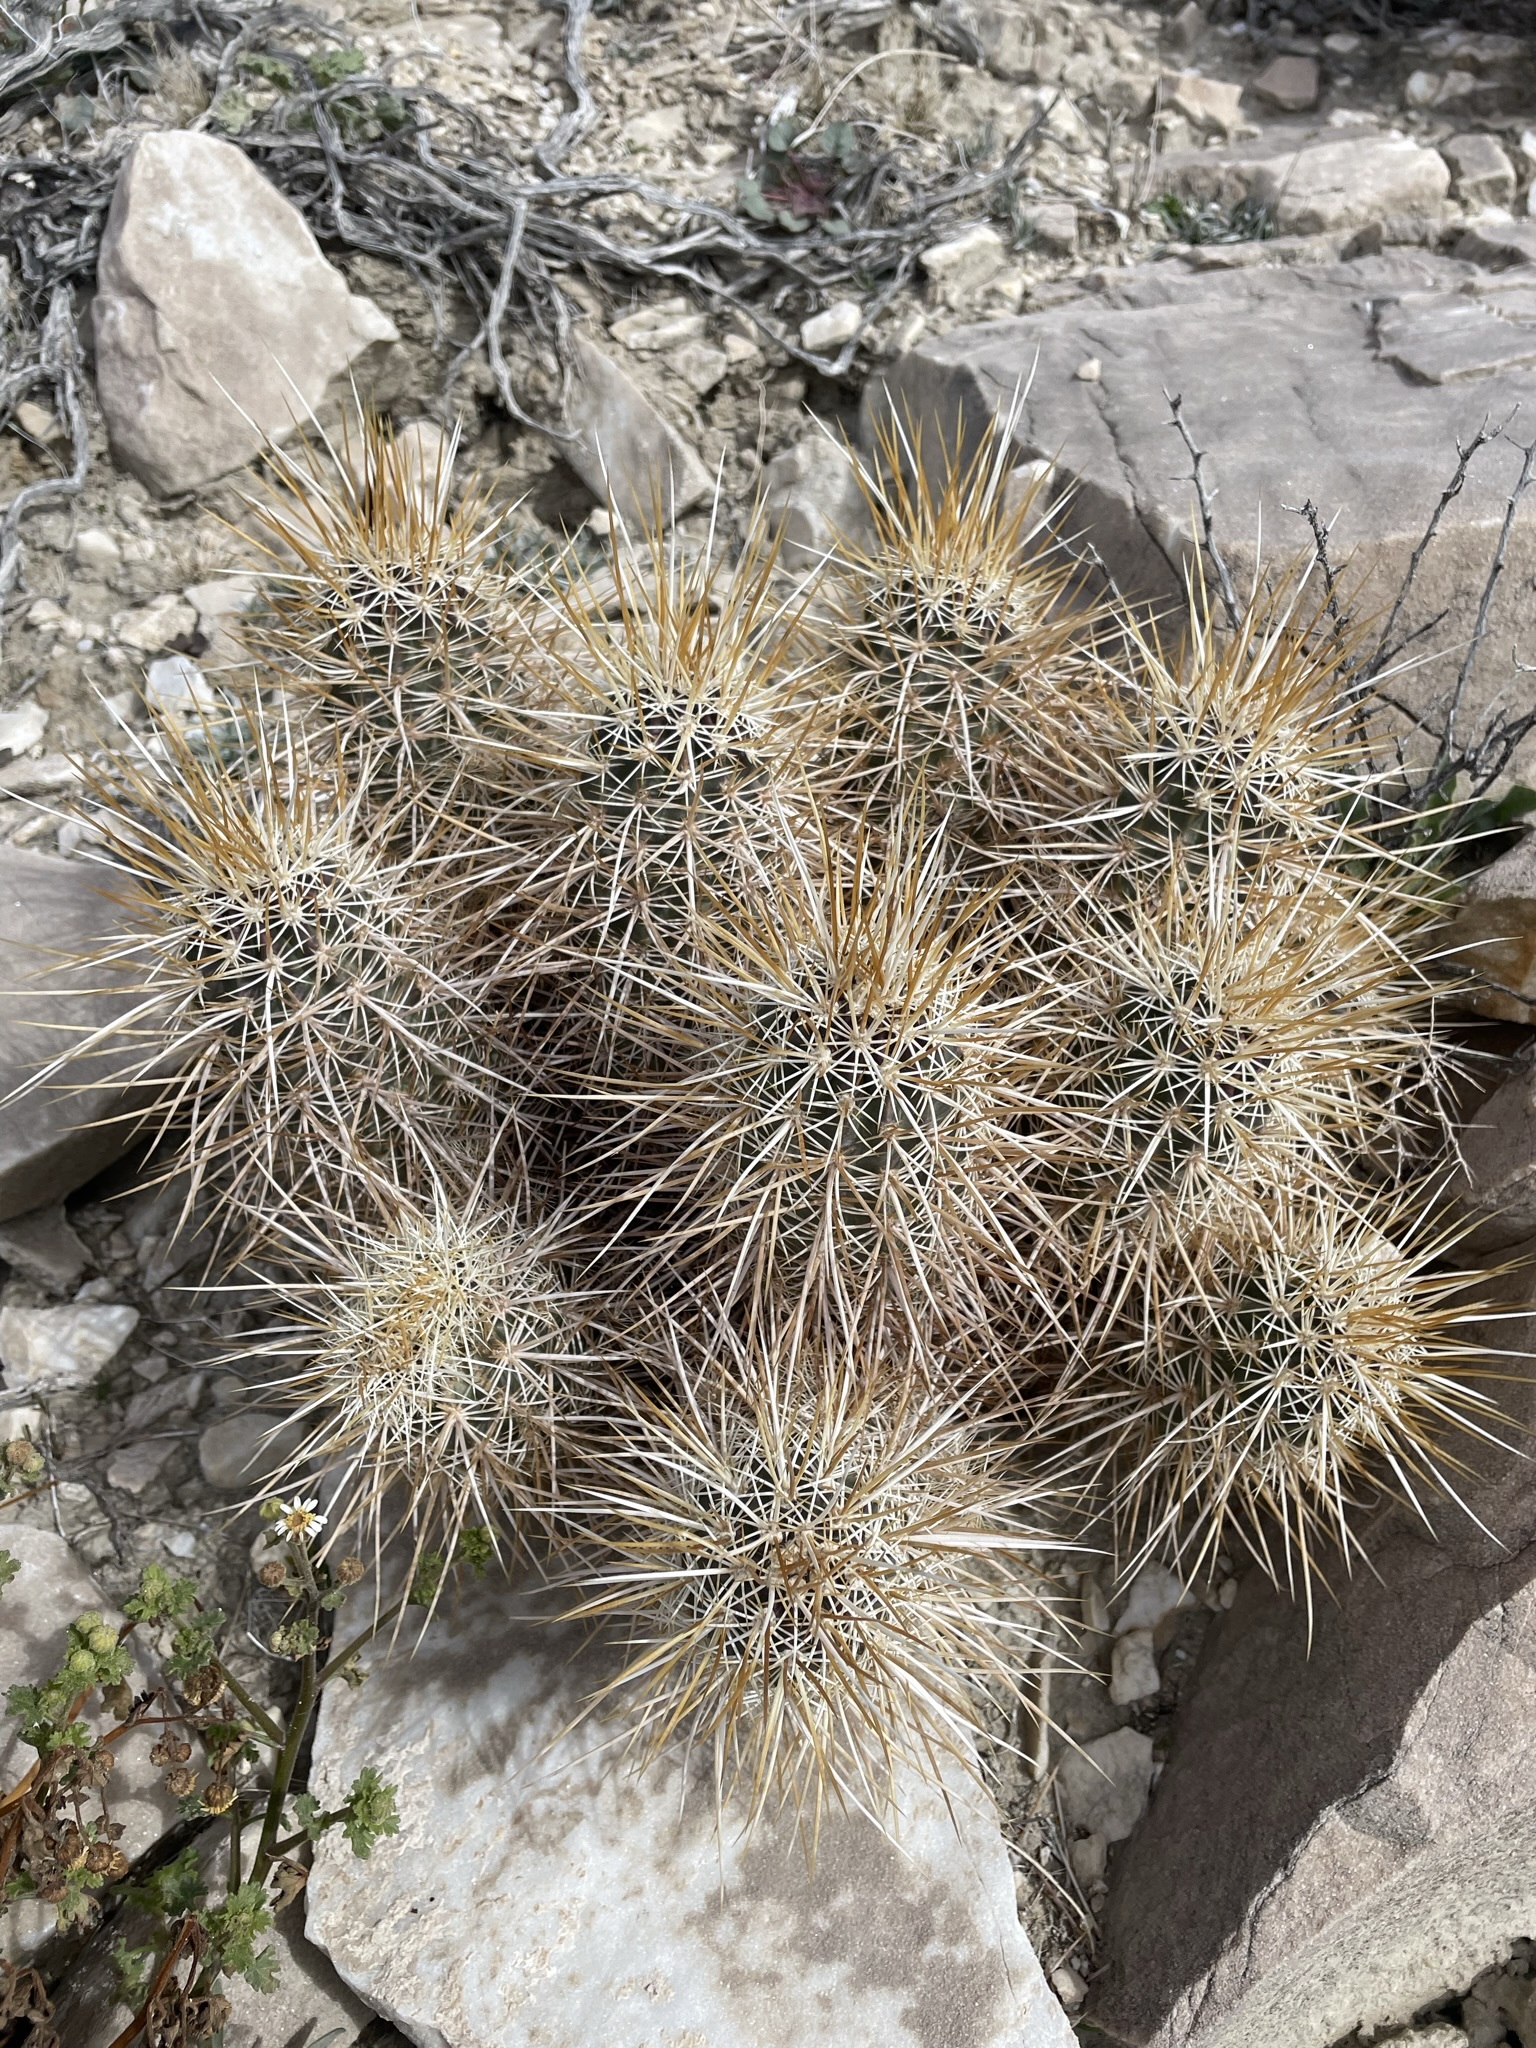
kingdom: Plantae
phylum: Tracheophyta
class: Magnoliopsida
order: Caryophyllales
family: Cactaceae
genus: Echinocereus
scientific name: Echinocereus engelmannii
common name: Engelmann's hedgehog cactus
